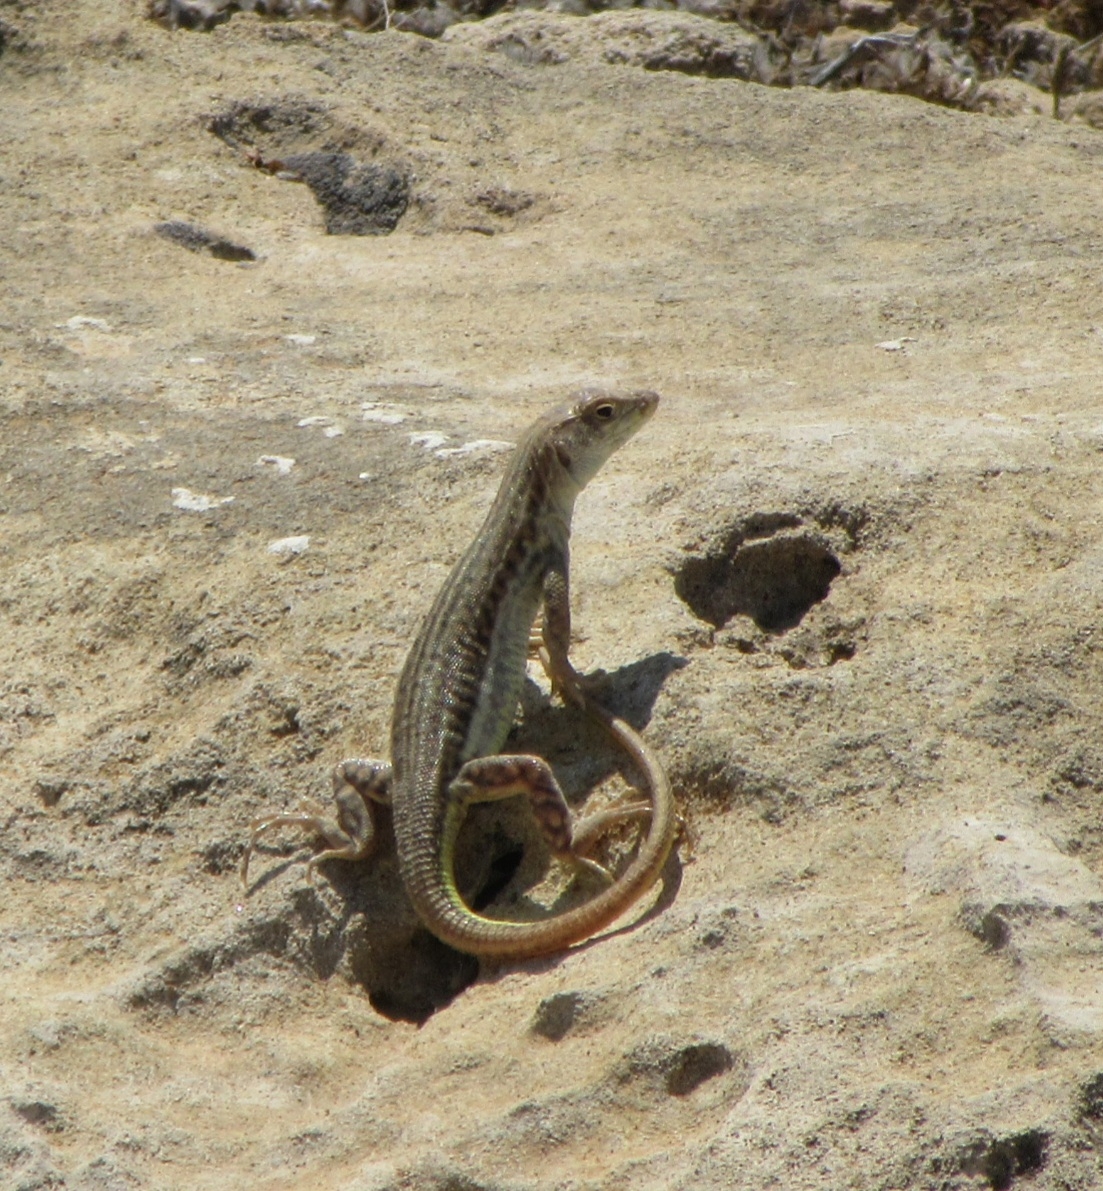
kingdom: Animalia
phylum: Chordata
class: Squamata
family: Lacertidae
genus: Acanthodactylus
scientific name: Acanthodactylus schreiberi
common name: Schreiber's fringe-fingered lizard
